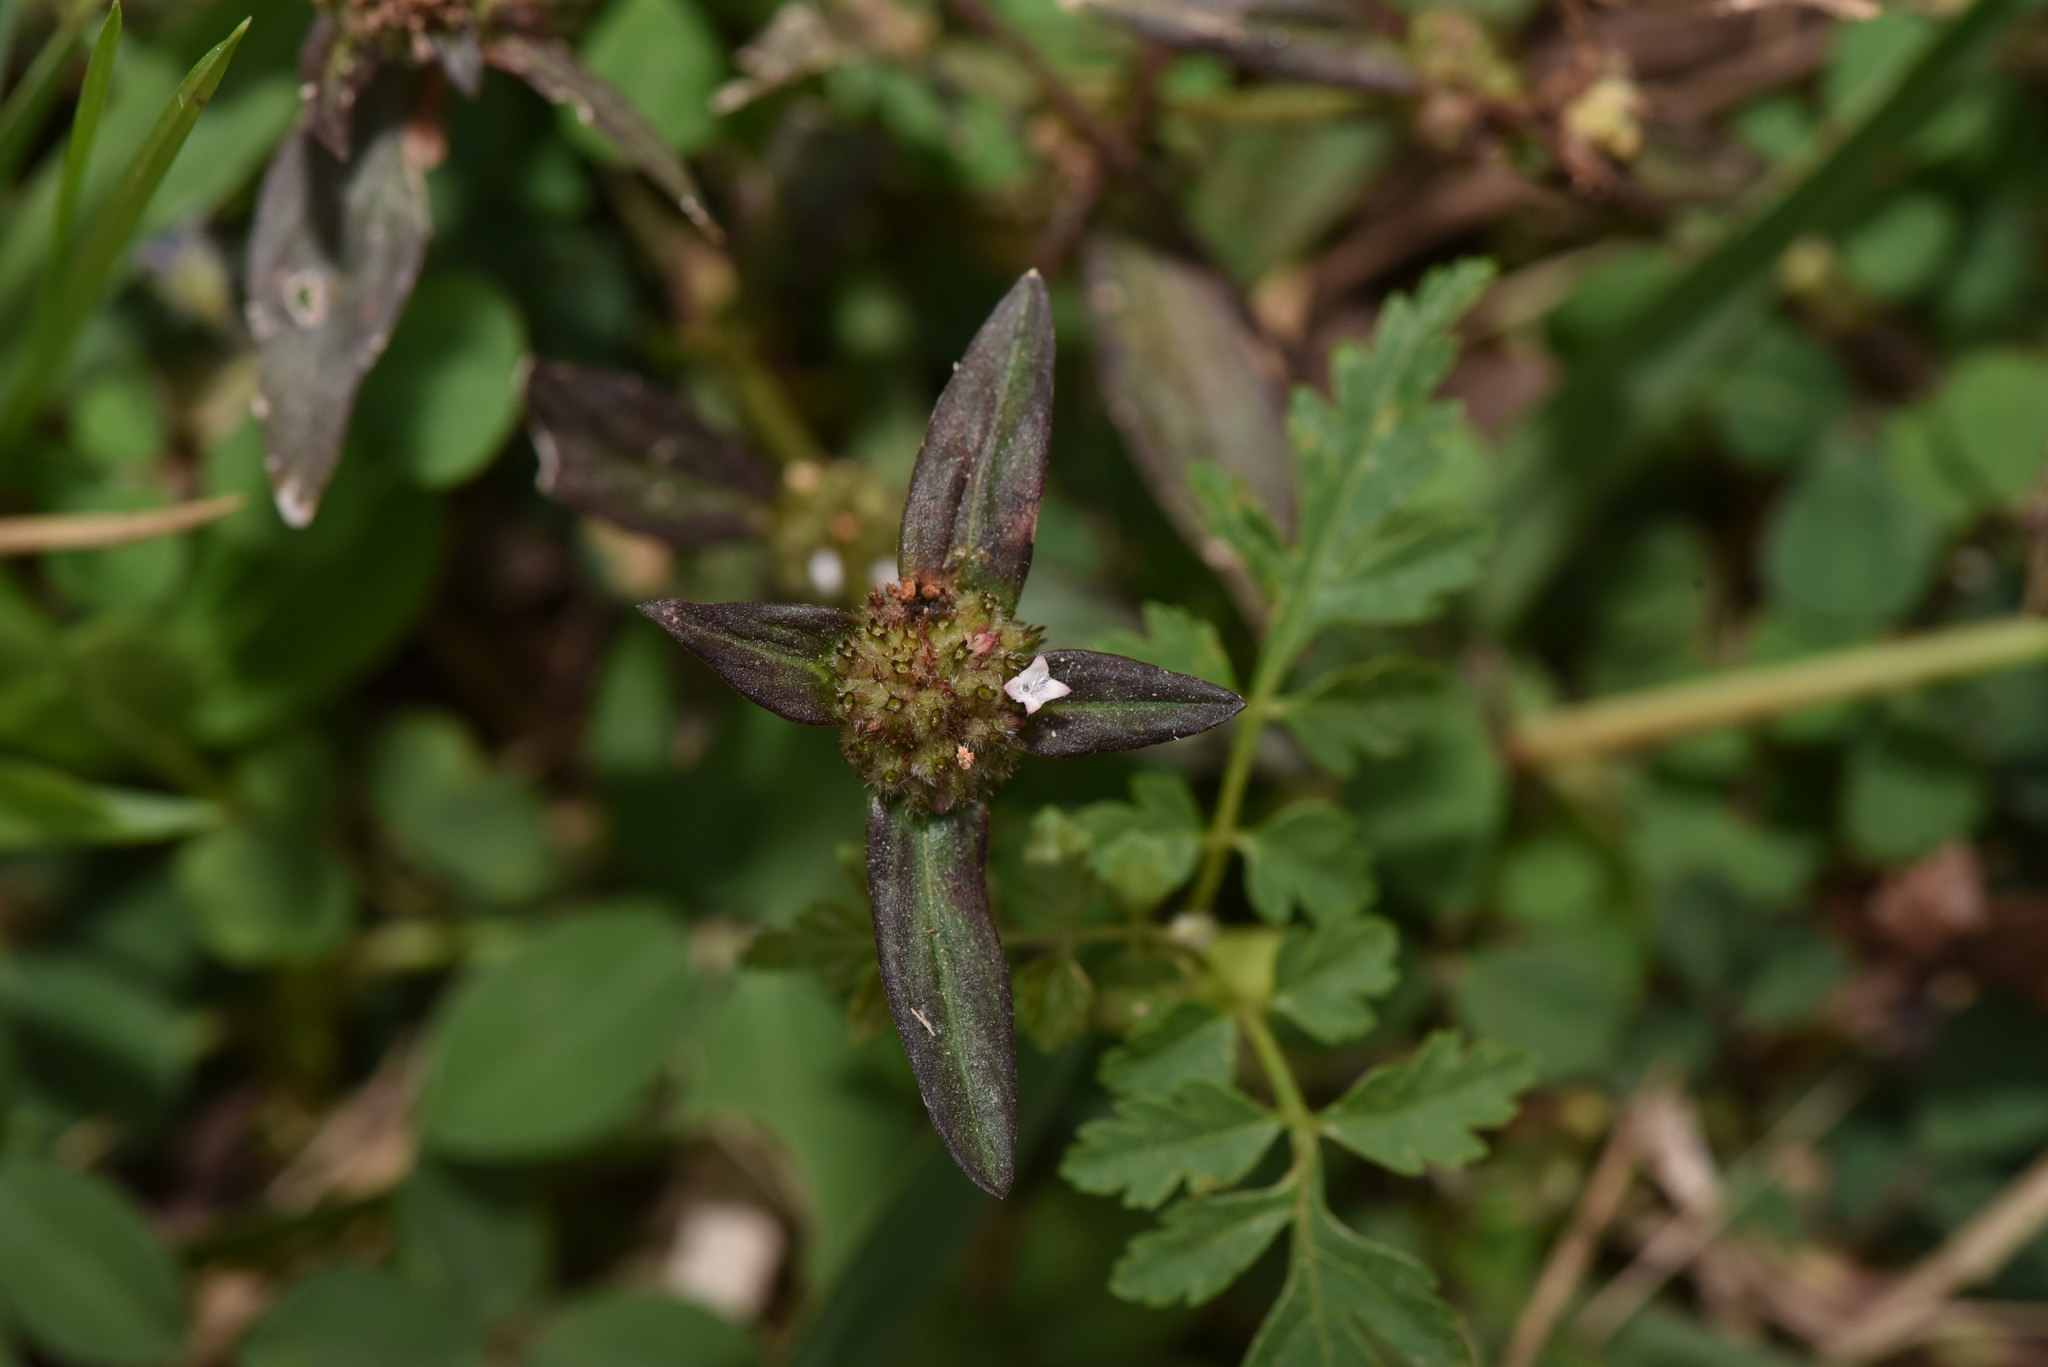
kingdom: Plantae
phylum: Tracheophyta
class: Magnoliopsida
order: Gentianales
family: Rubiaceae
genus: Spermacoce
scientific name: Spermacoce remota
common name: Woodland false buttonweed
